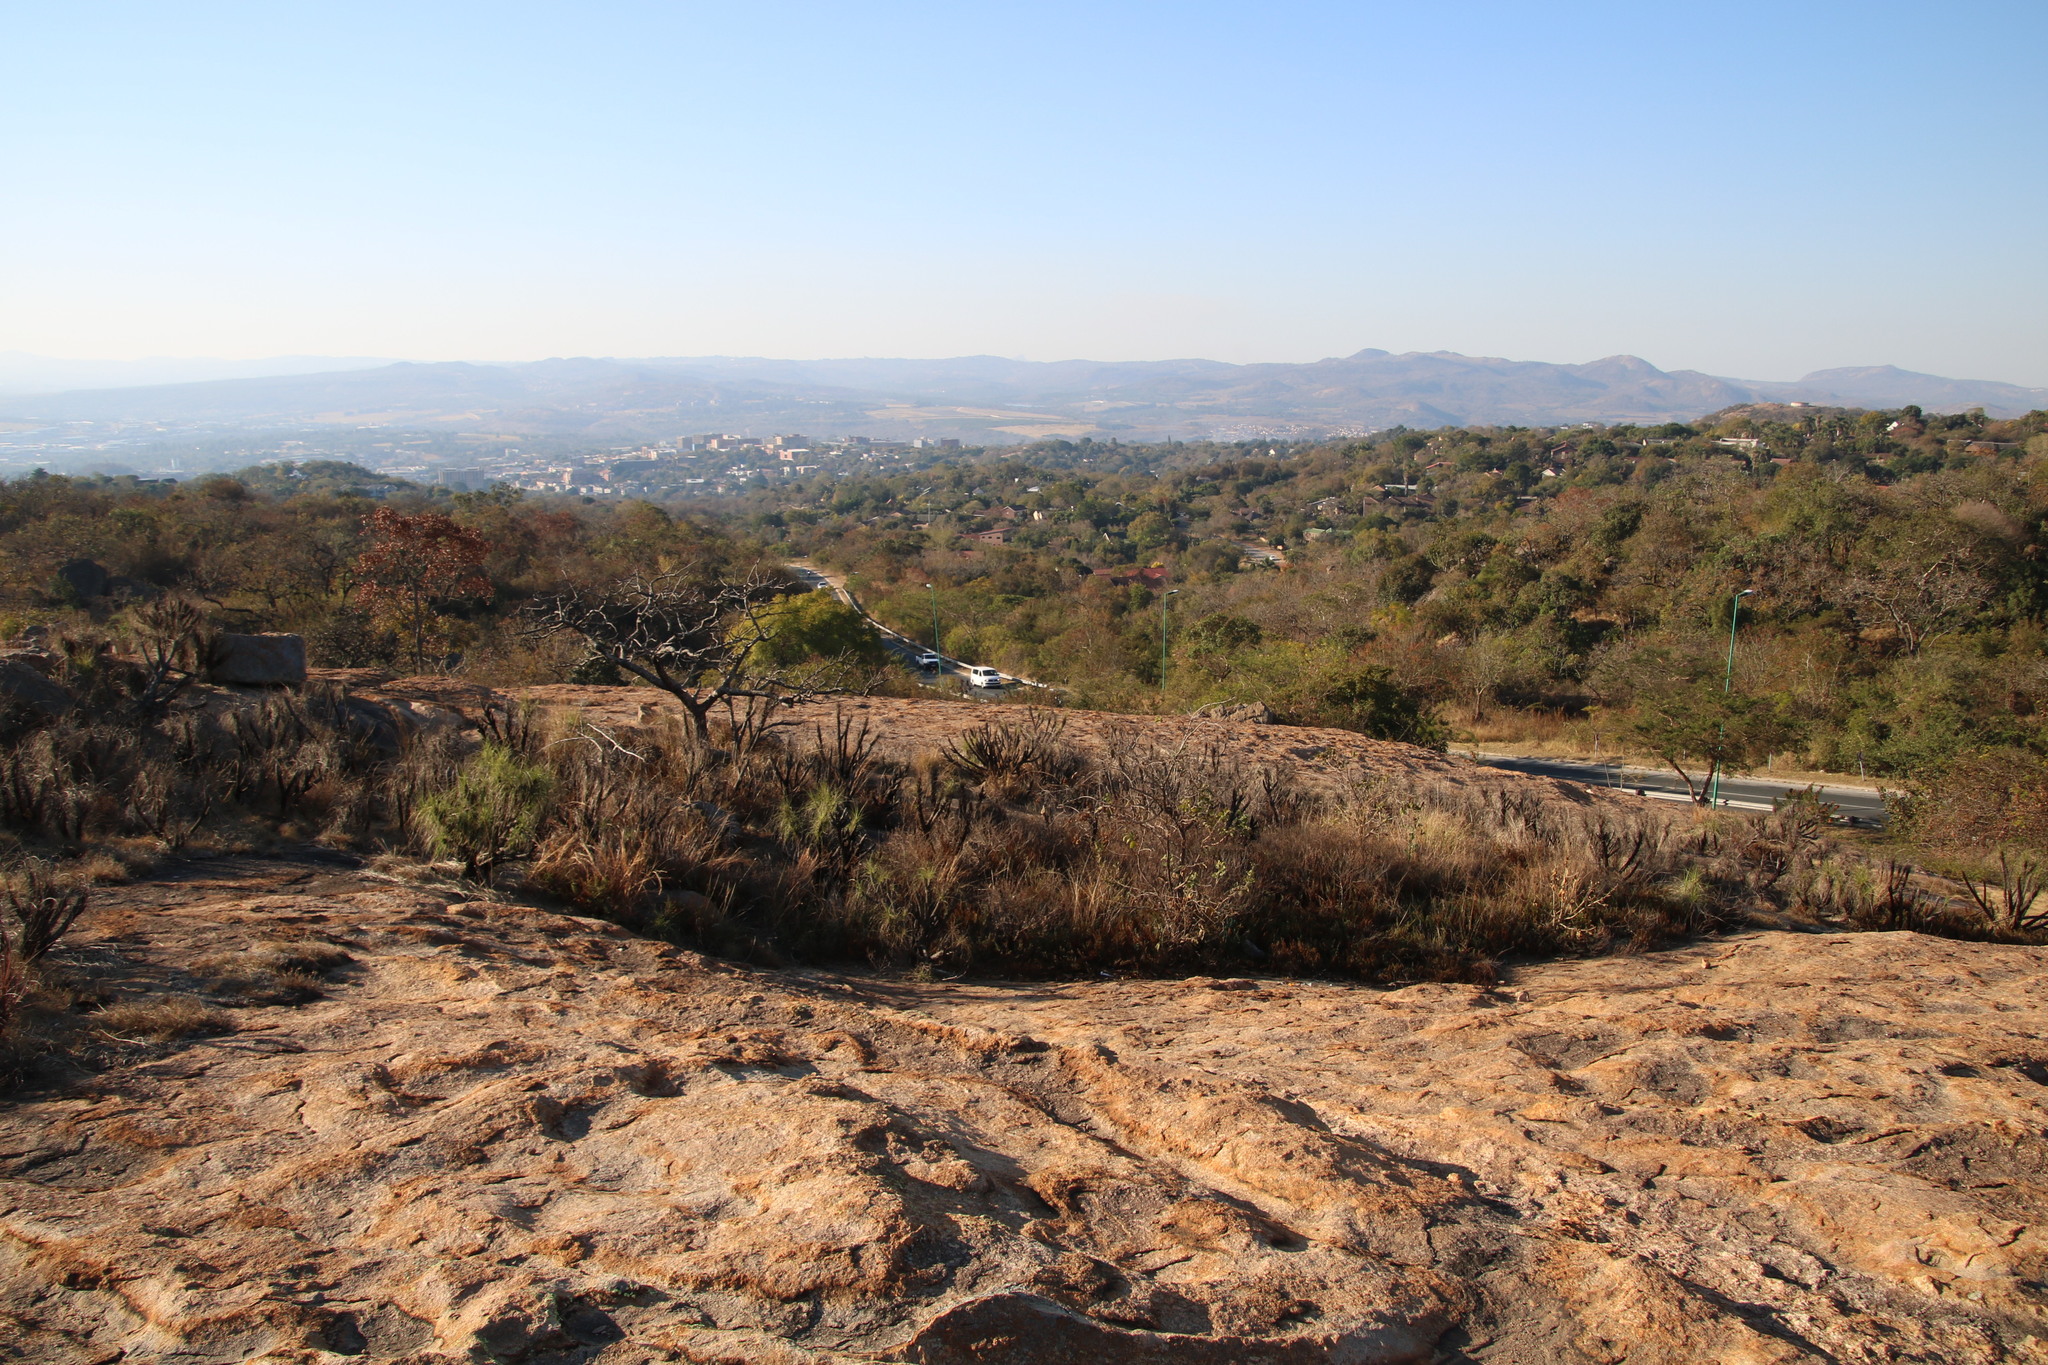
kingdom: Plantae
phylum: Tracheophyta
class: Liliopsida
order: Pandanales
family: Velloziaceae
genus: Xerophyta
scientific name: Xerophyta retinervis
